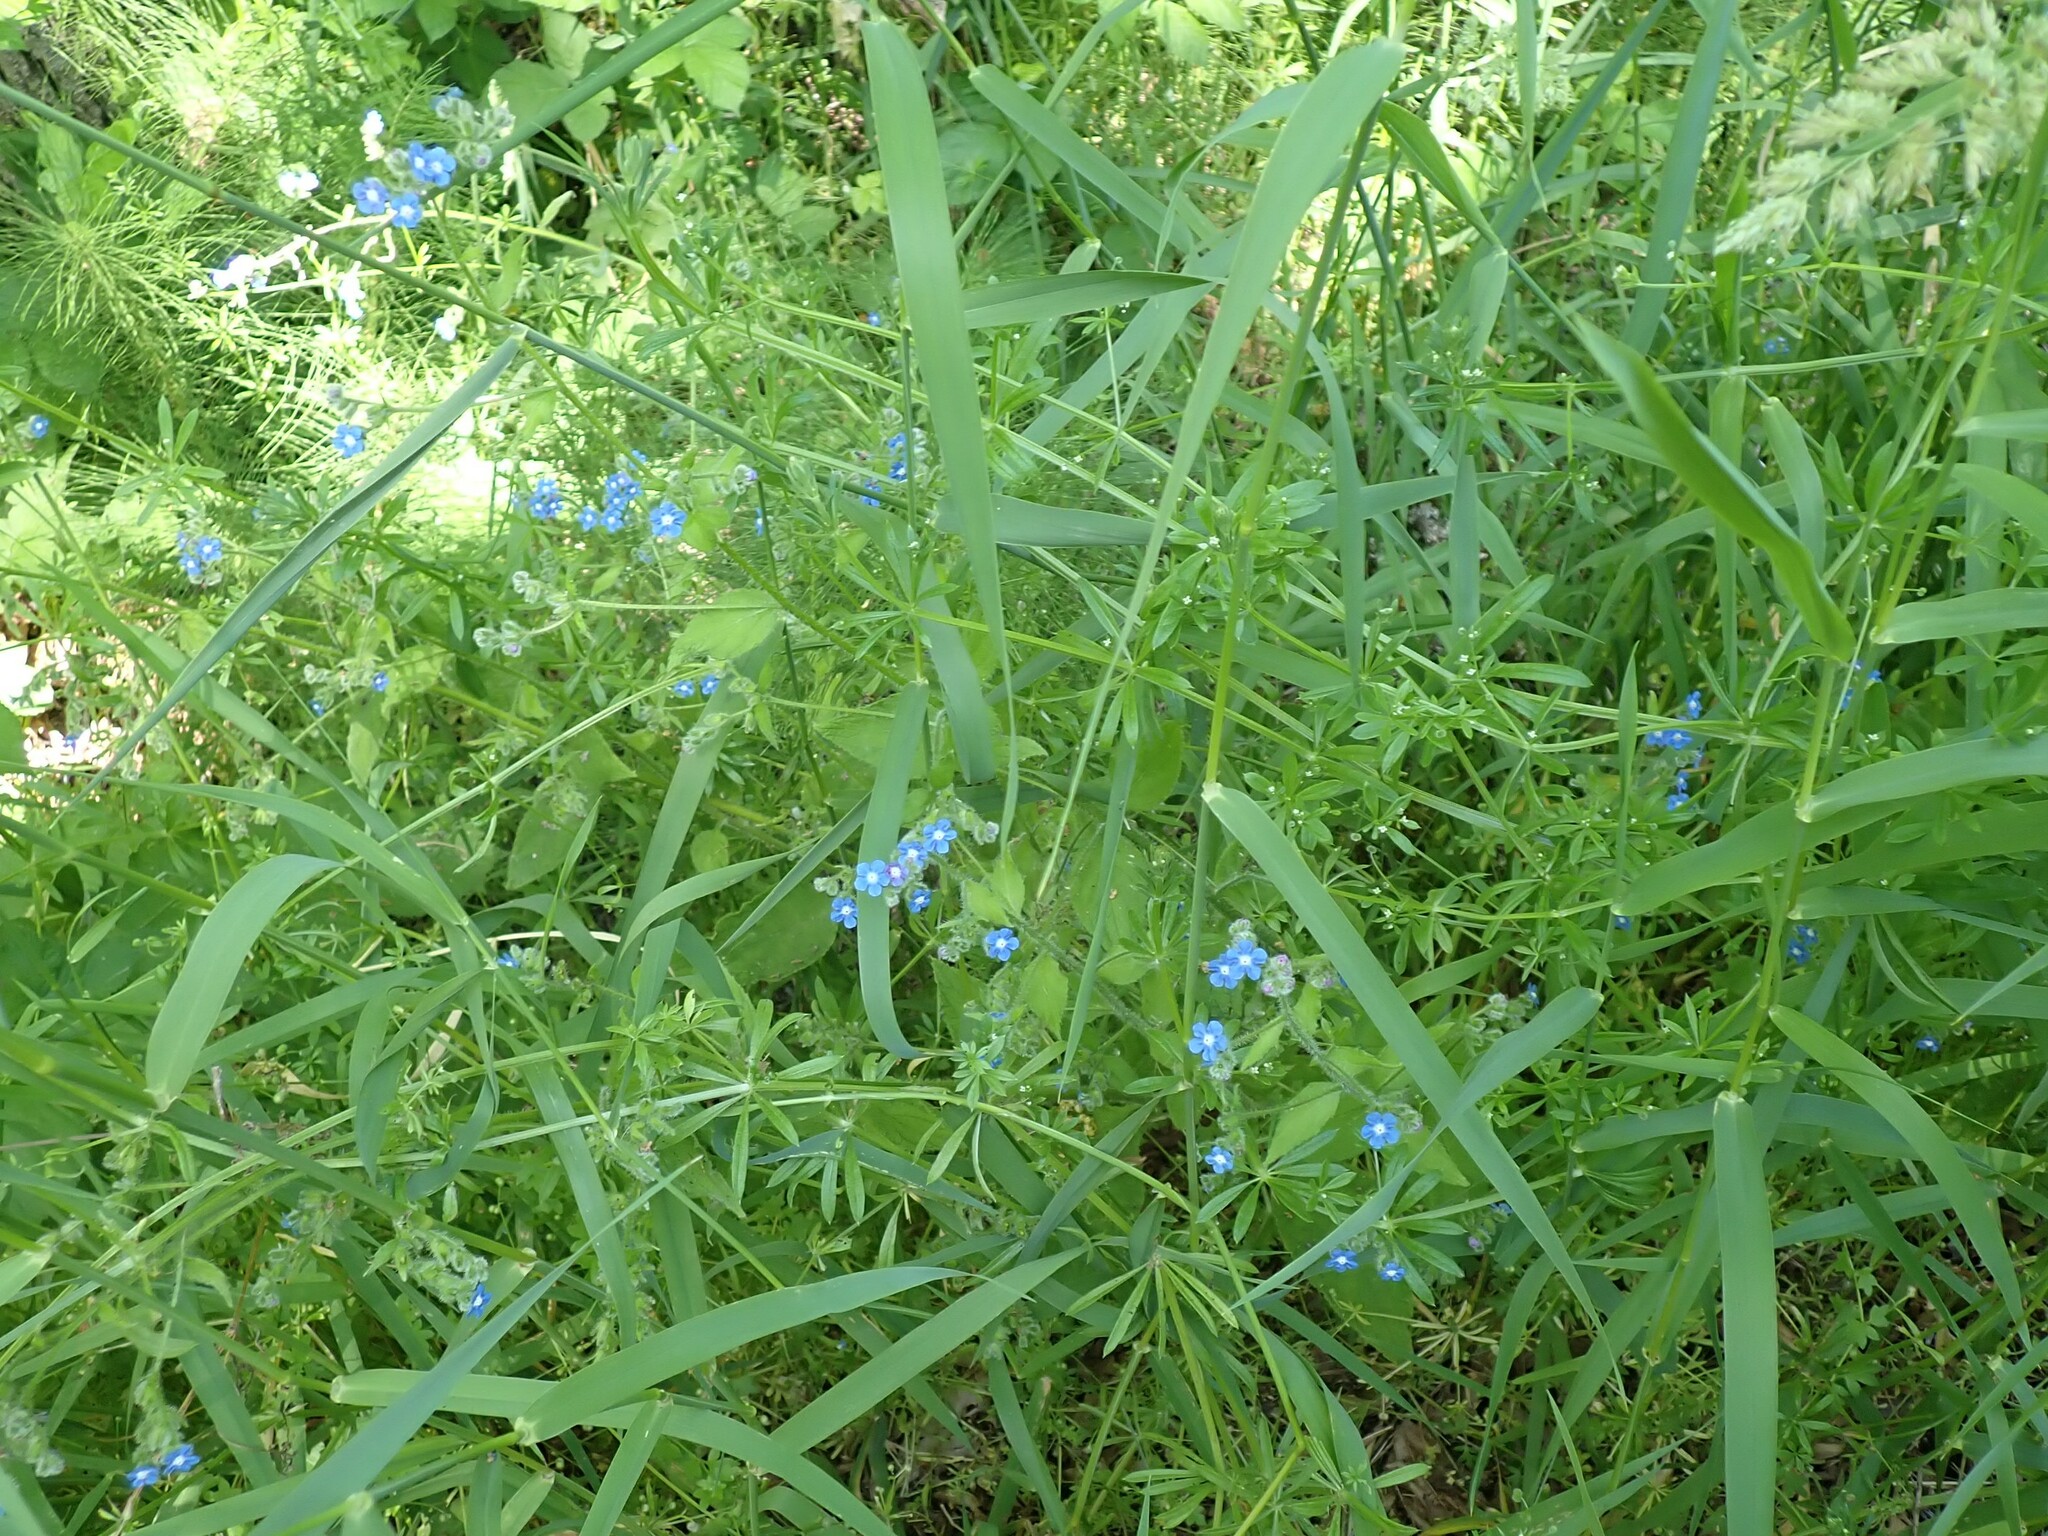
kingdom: Plantae
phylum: Tracheophyta
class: Magnoliopsida
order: Boraginales
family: Boraginaceae
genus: Pentaglottis
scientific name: Pentaglottis sempervirens
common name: Green alkanet
